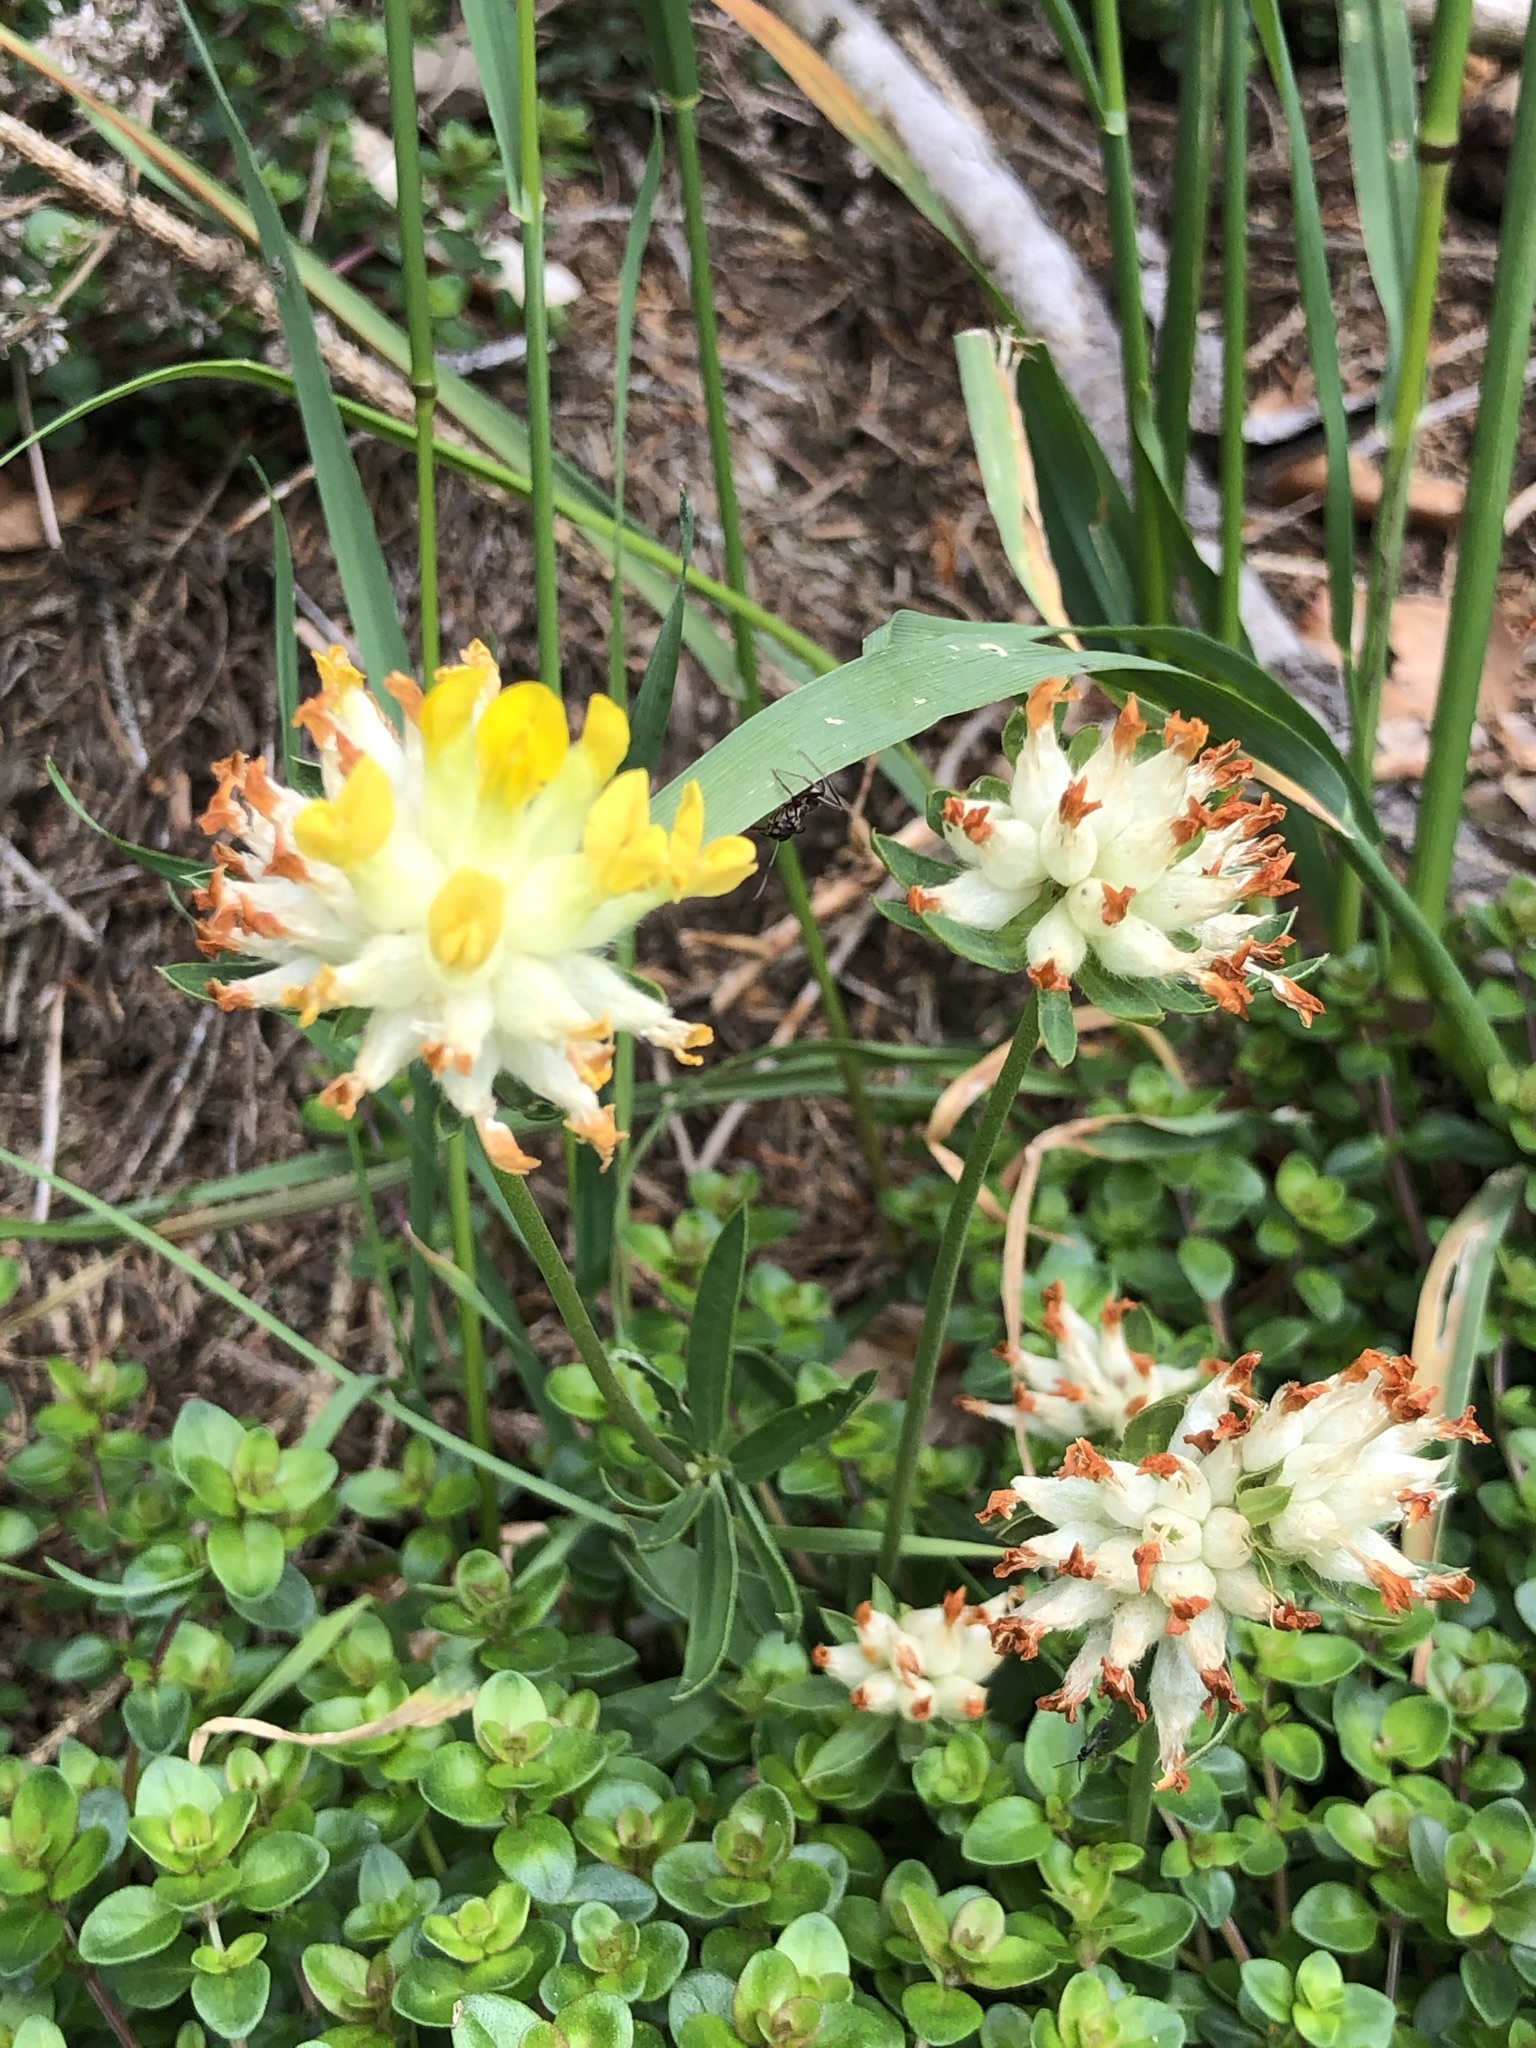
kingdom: Plantae
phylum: Tracheophyta
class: Magnoliopsida
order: Fabales
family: Fabaceae
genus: Anthyllis
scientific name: Anthyllis vulneraria
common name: Kidney vetch
